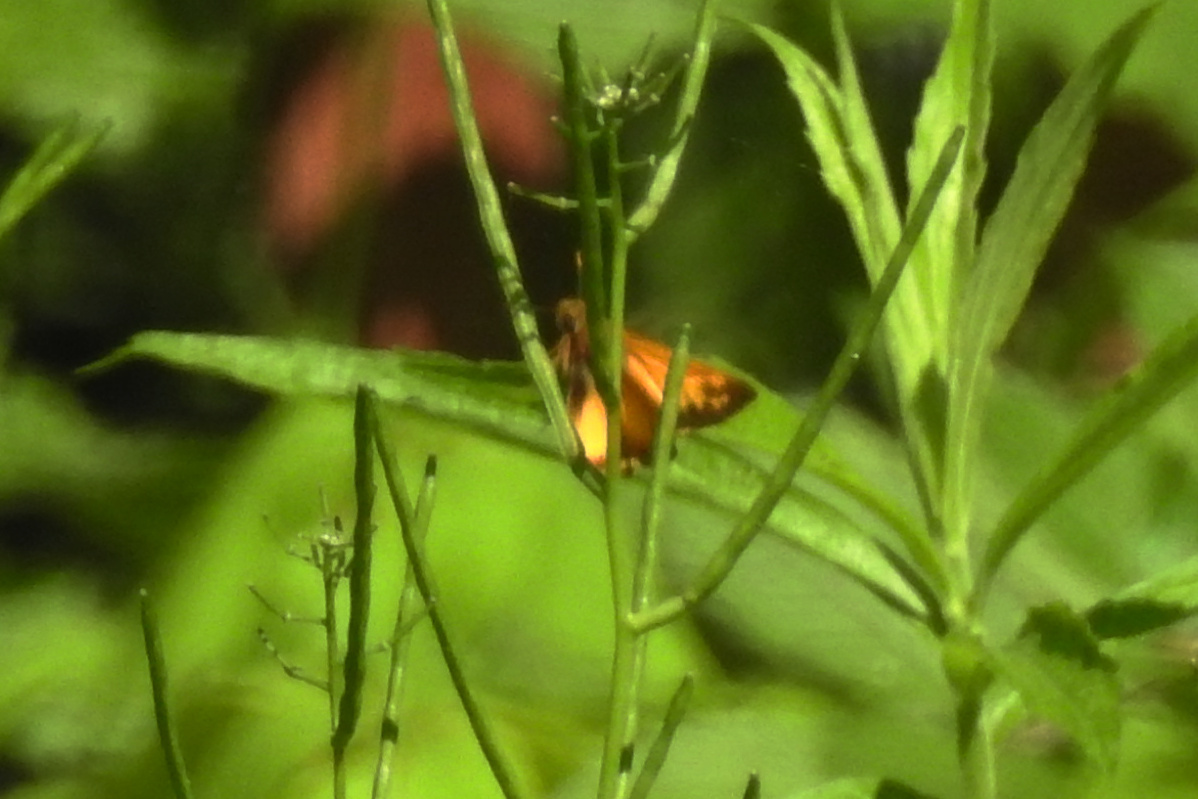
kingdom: Animalia
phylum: Arthropoda
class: Insecta
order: Lepidoptera
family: Hesperiidae
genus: Lon
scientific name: Lon zabulon
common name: Zabulon skipper
